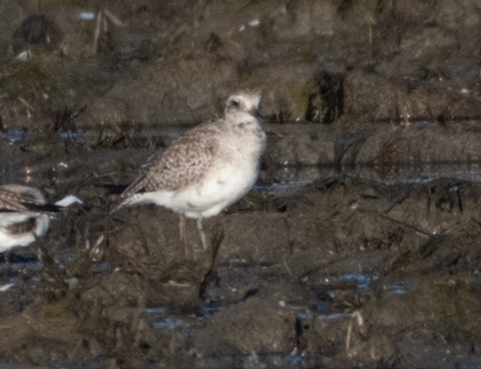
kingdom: Animalia
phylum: Chordata
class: Aves
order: Charadriiformes
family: Charadriidae
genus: Pluvialis
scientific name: Pluvialis squatarola
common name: Grey plover
